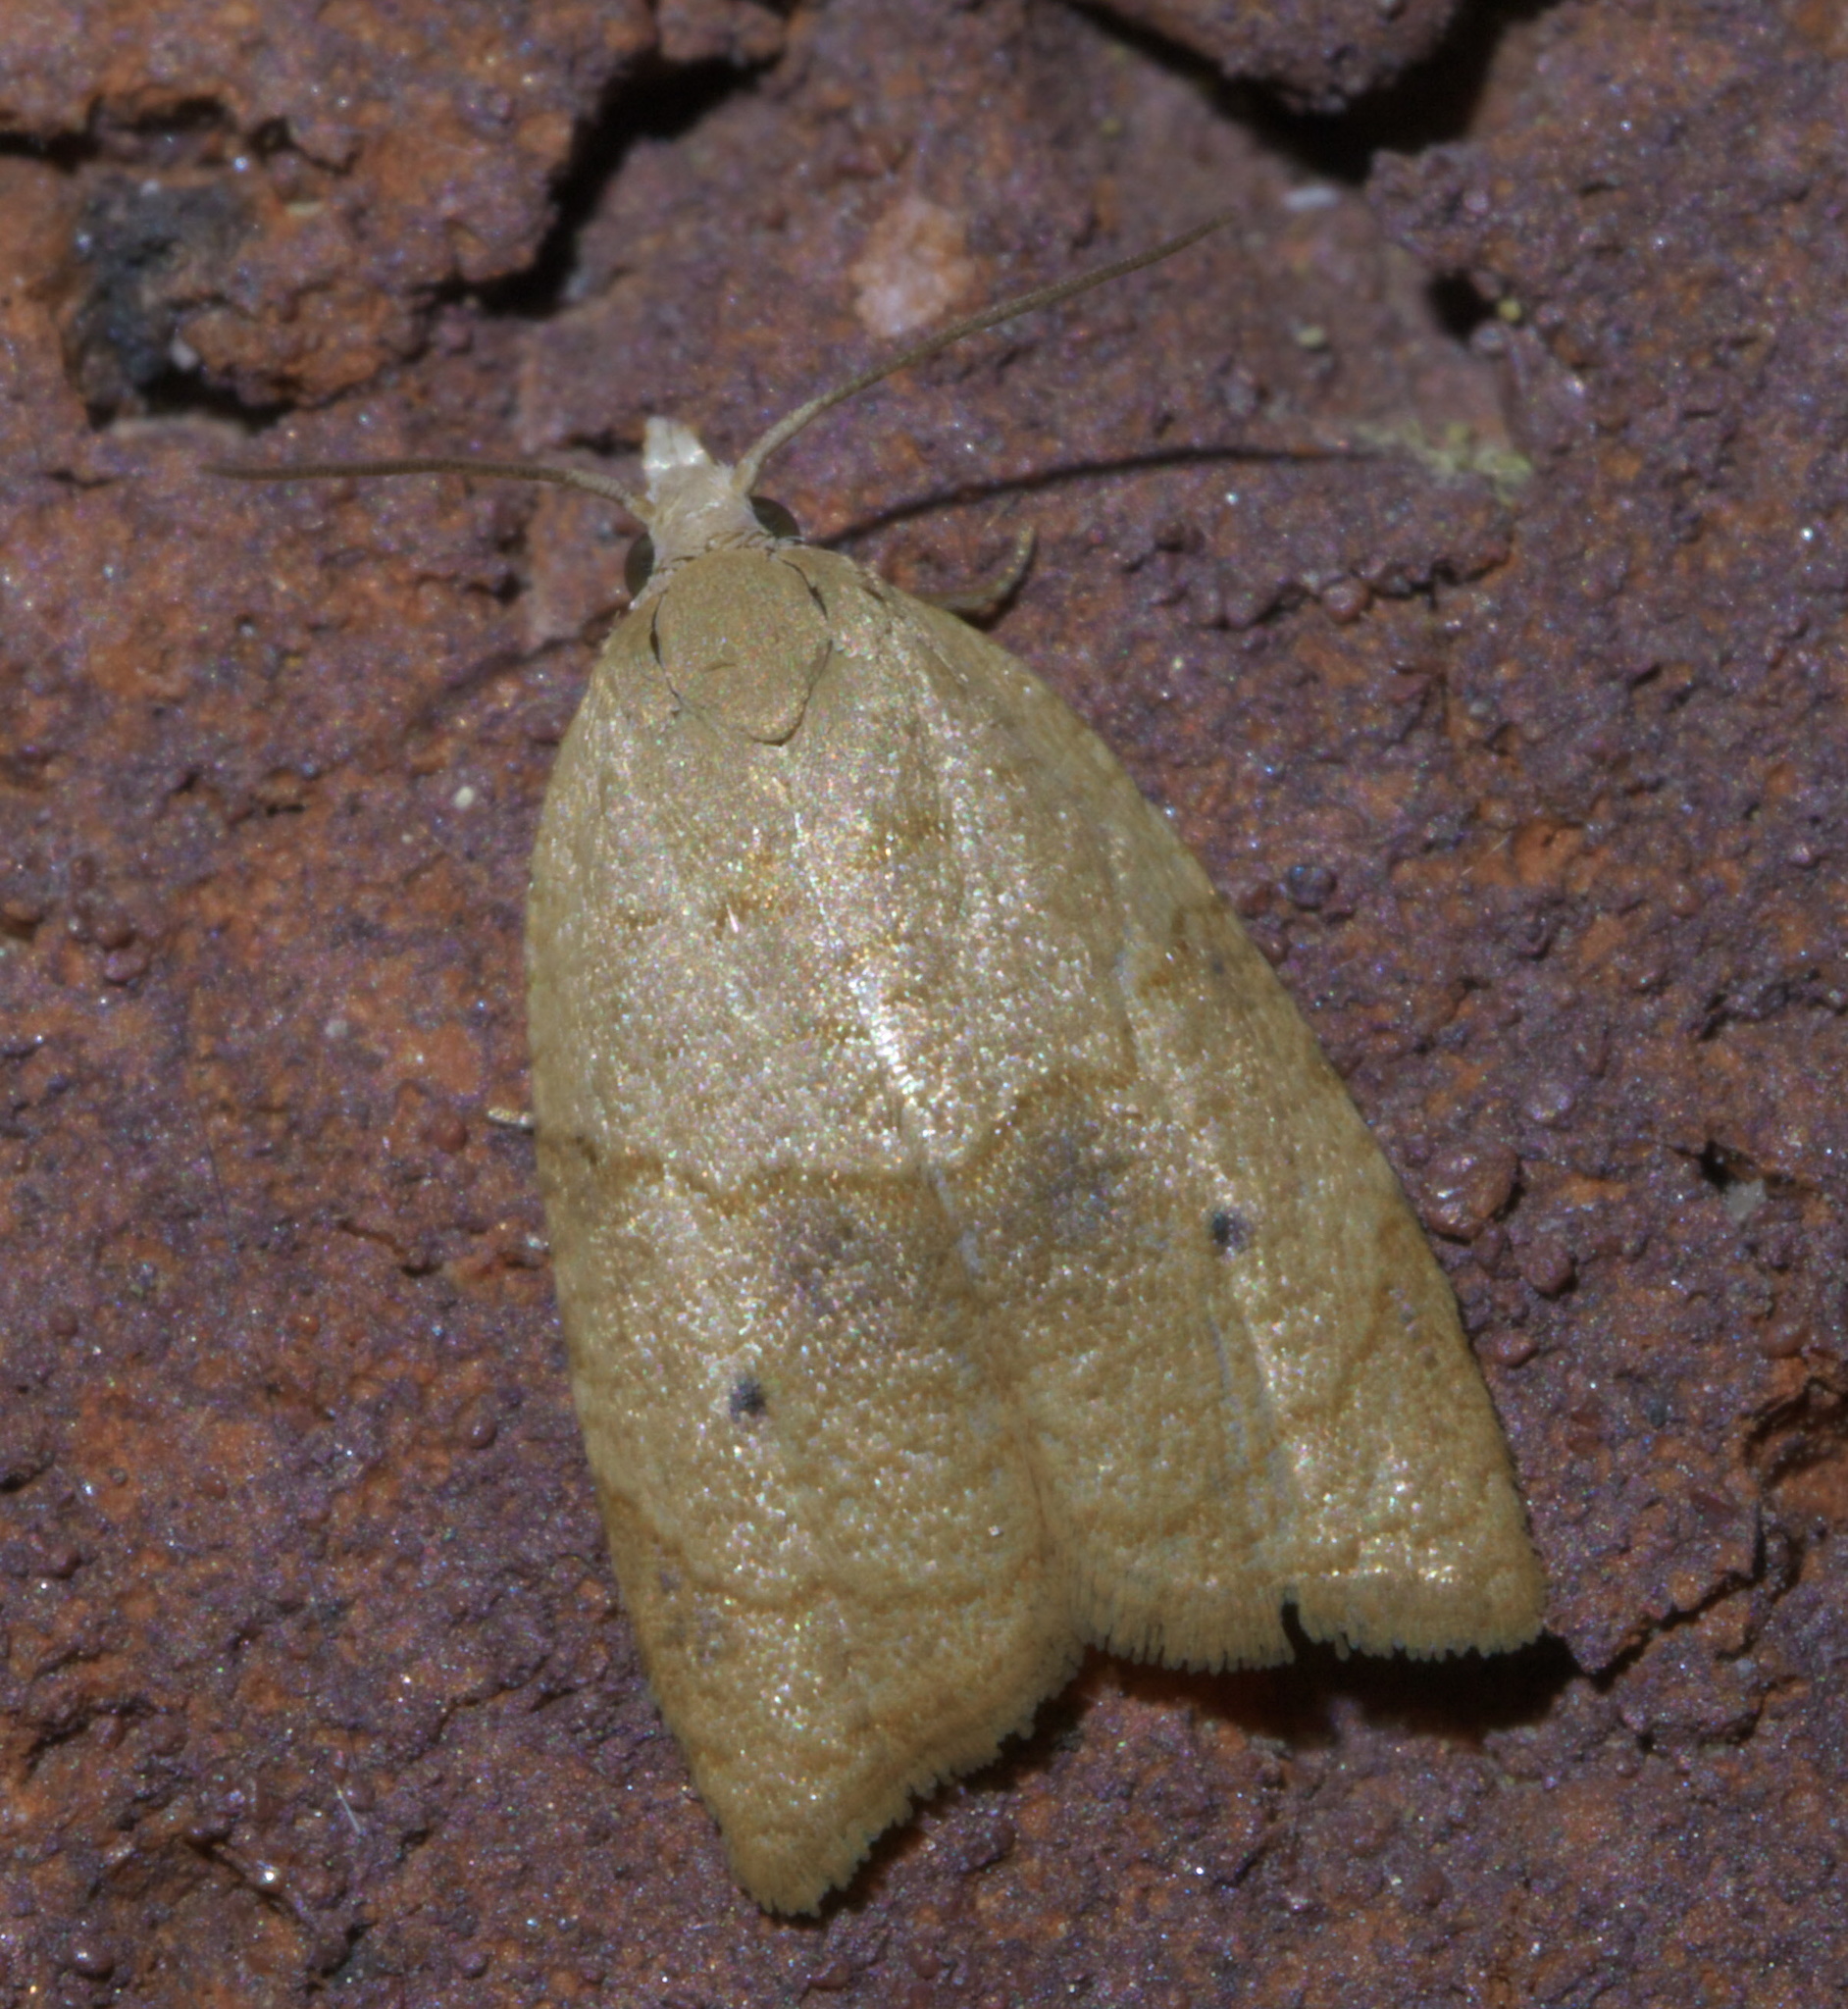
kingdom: Animalia
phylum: Arthropoda
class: Insecta
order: Lepidoptera
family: Tortricidae
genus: Coelostathma
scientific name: Coelostathma discopunctana
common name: Batman moth
